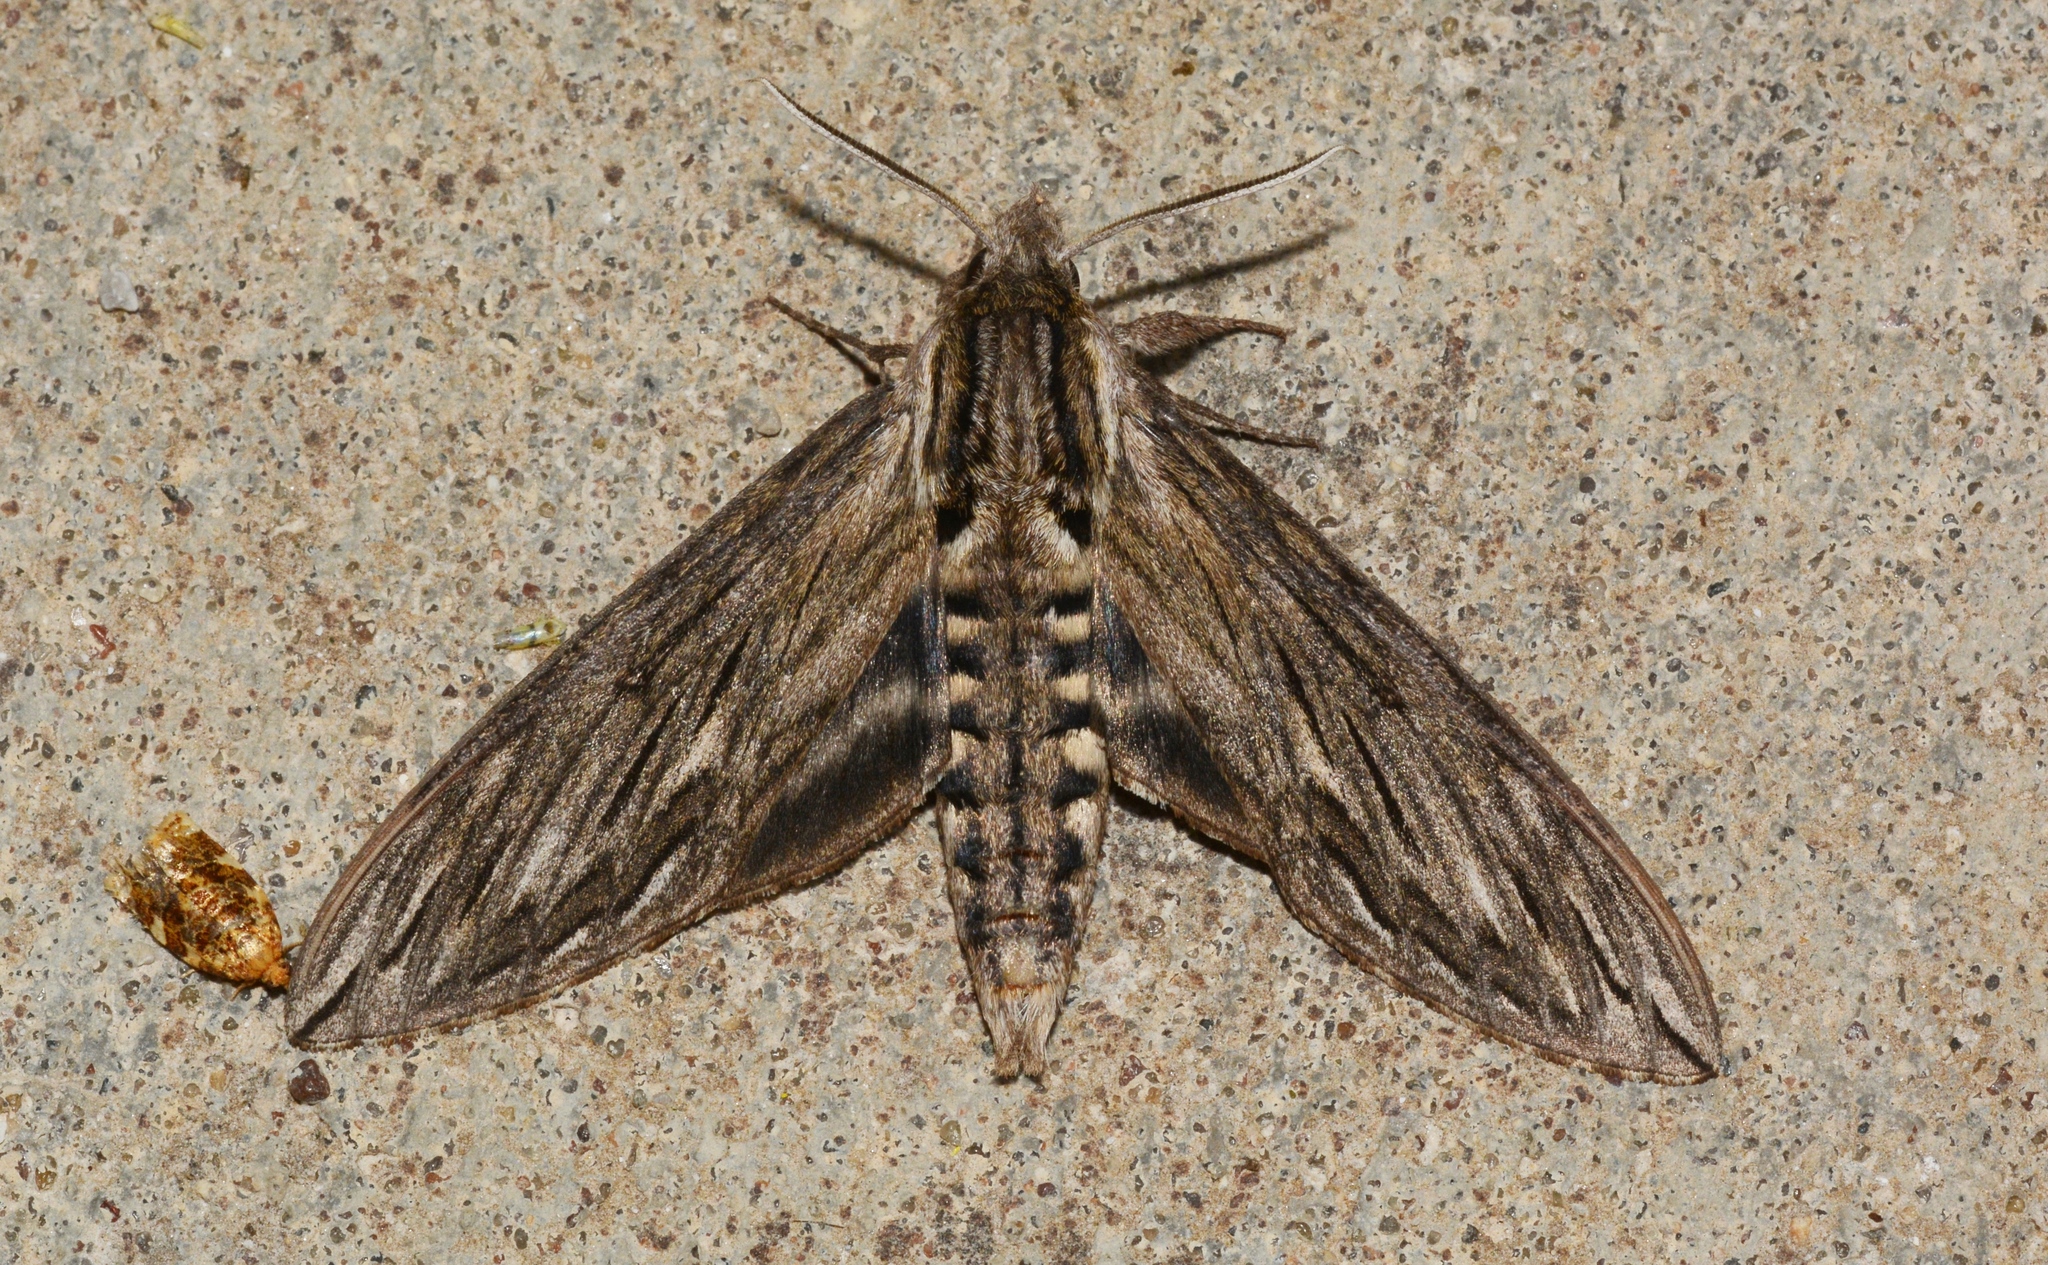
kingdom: Animalia
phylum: Arthropoda
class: Insecta
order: Lepidoptera
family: Sphingidae
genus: Sphinx
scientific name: Sphinx canadensis
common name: Canadian sphinx
